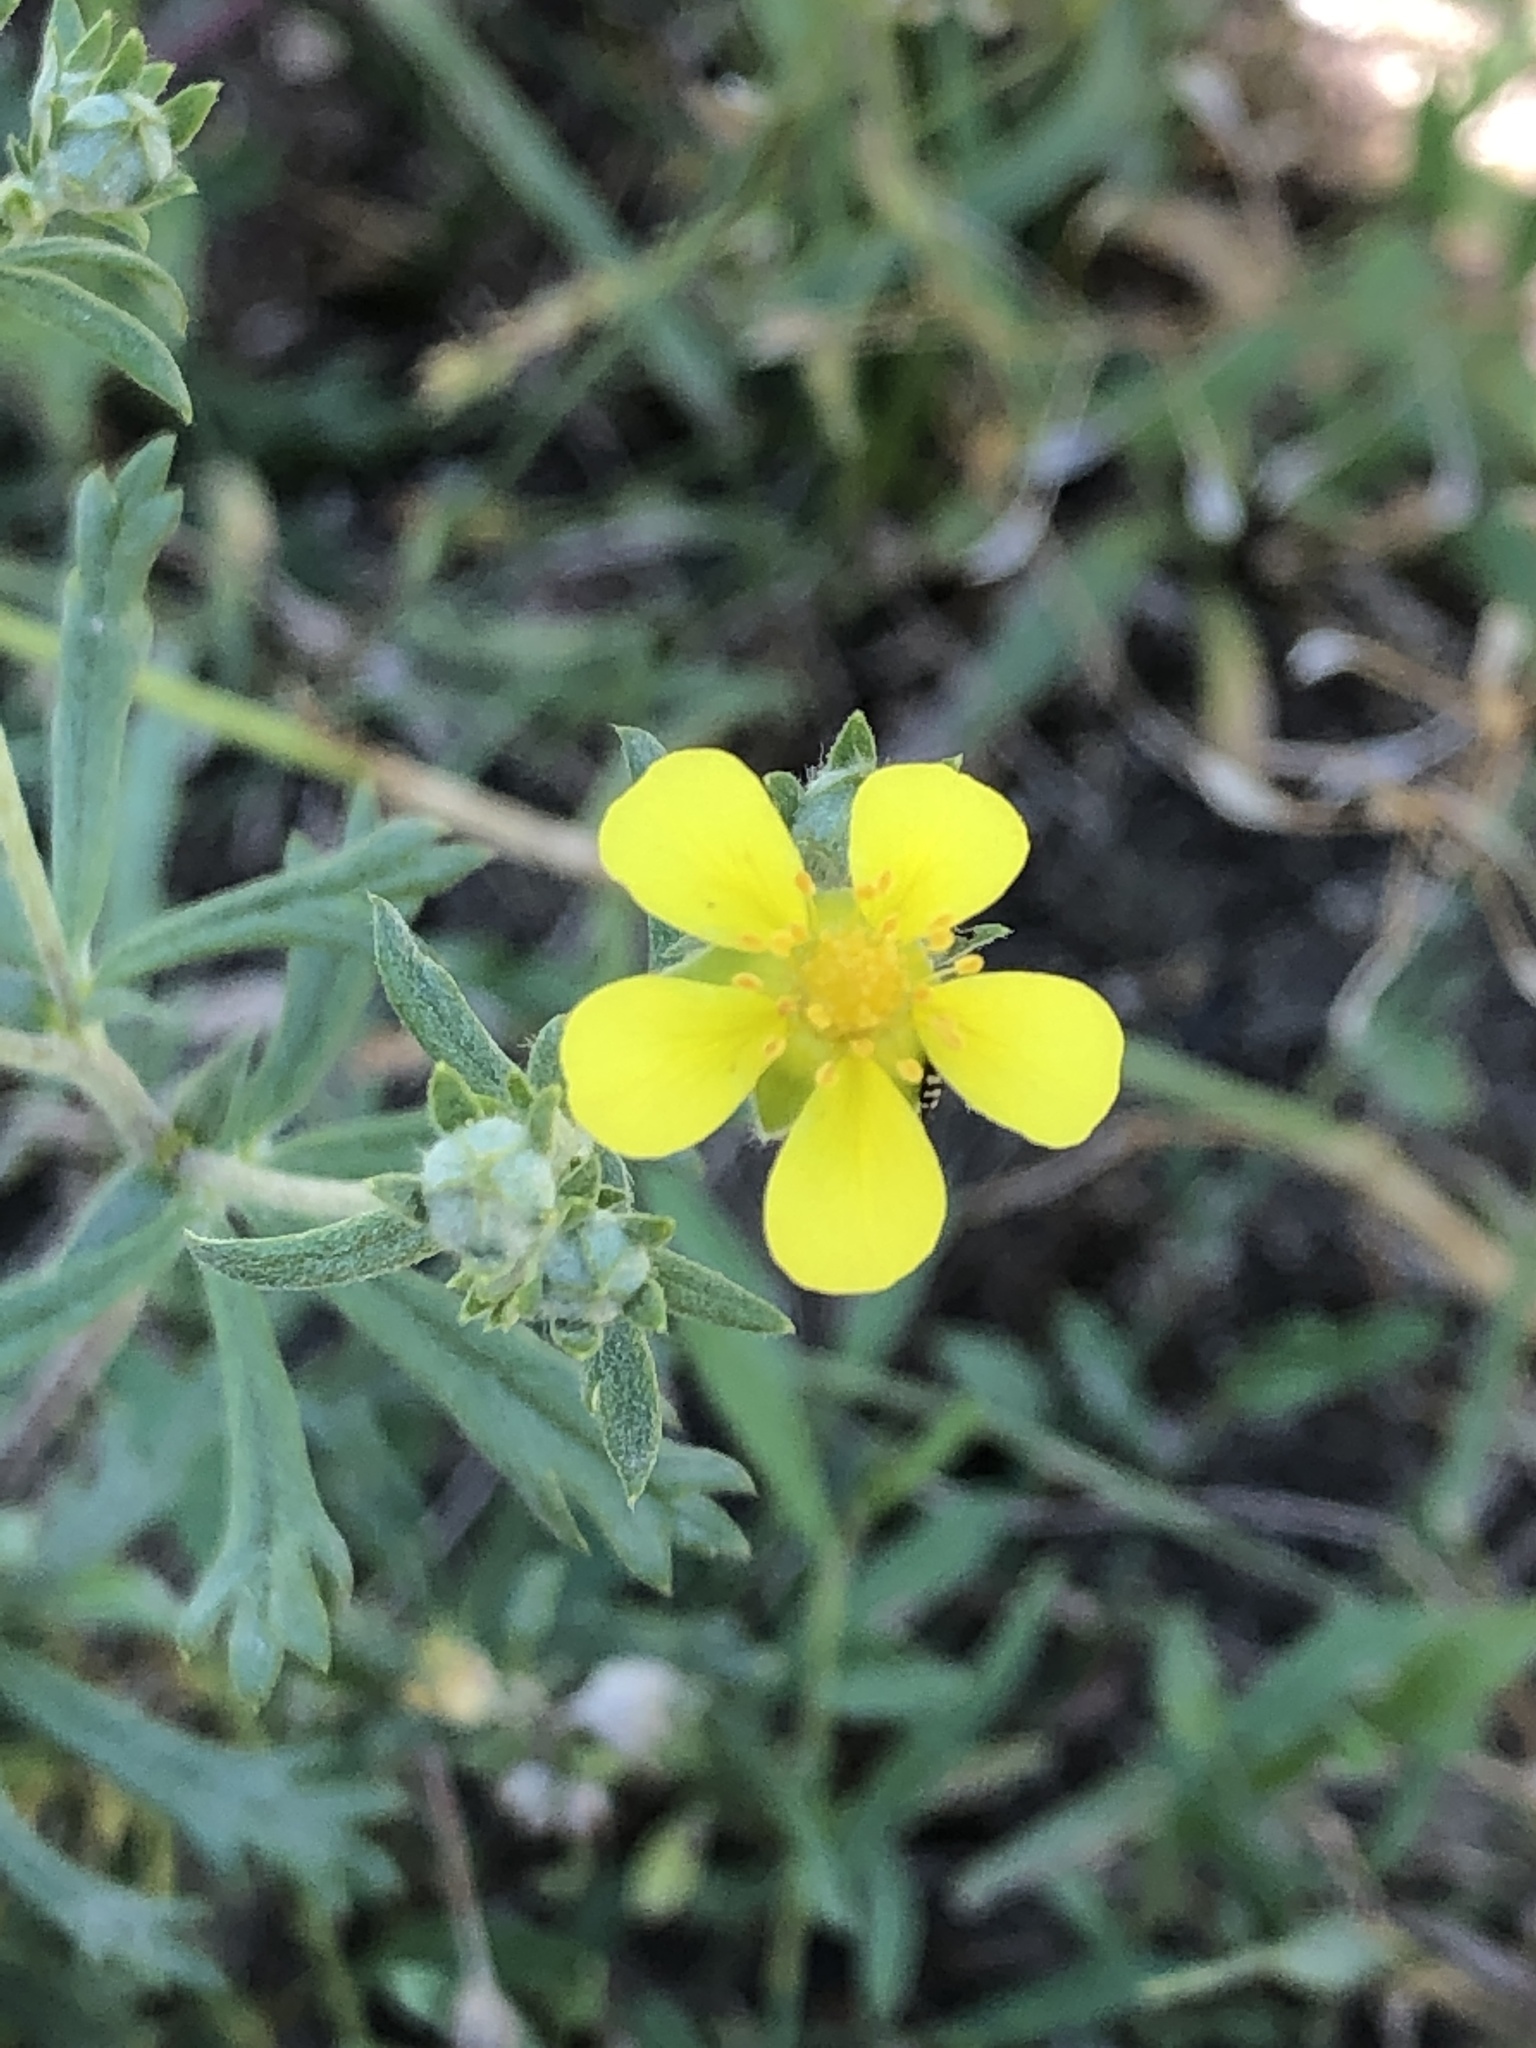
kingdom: Plantae
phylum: Tracheophyta
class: Magnoliopsida
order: Rosales
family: Rosaceae
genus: Potentilla
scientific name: Potentilla argentea
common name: Hoary cinquefoil
